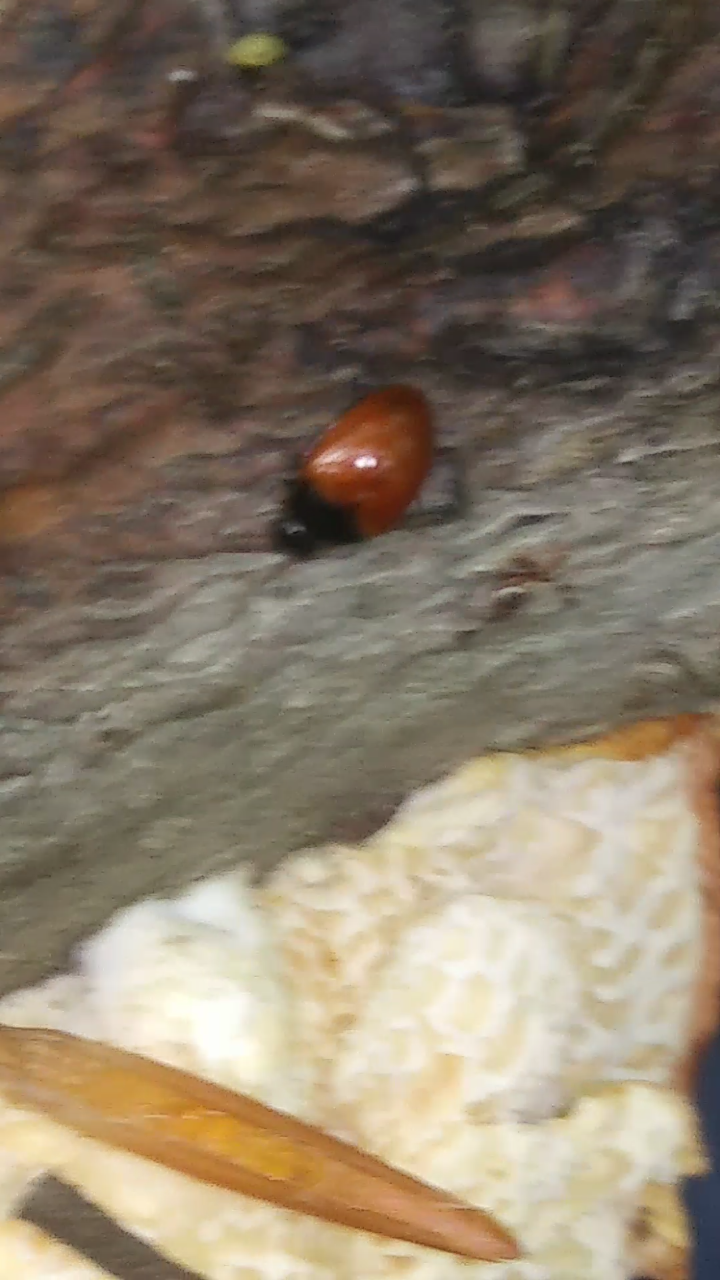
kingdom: Animalia
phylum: Arthropoda
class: Insecta
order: Coleoptera
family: Erotylidae
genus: Tritoma
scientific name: Tritoma sanguinipennis
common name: Red-winged tritoma
